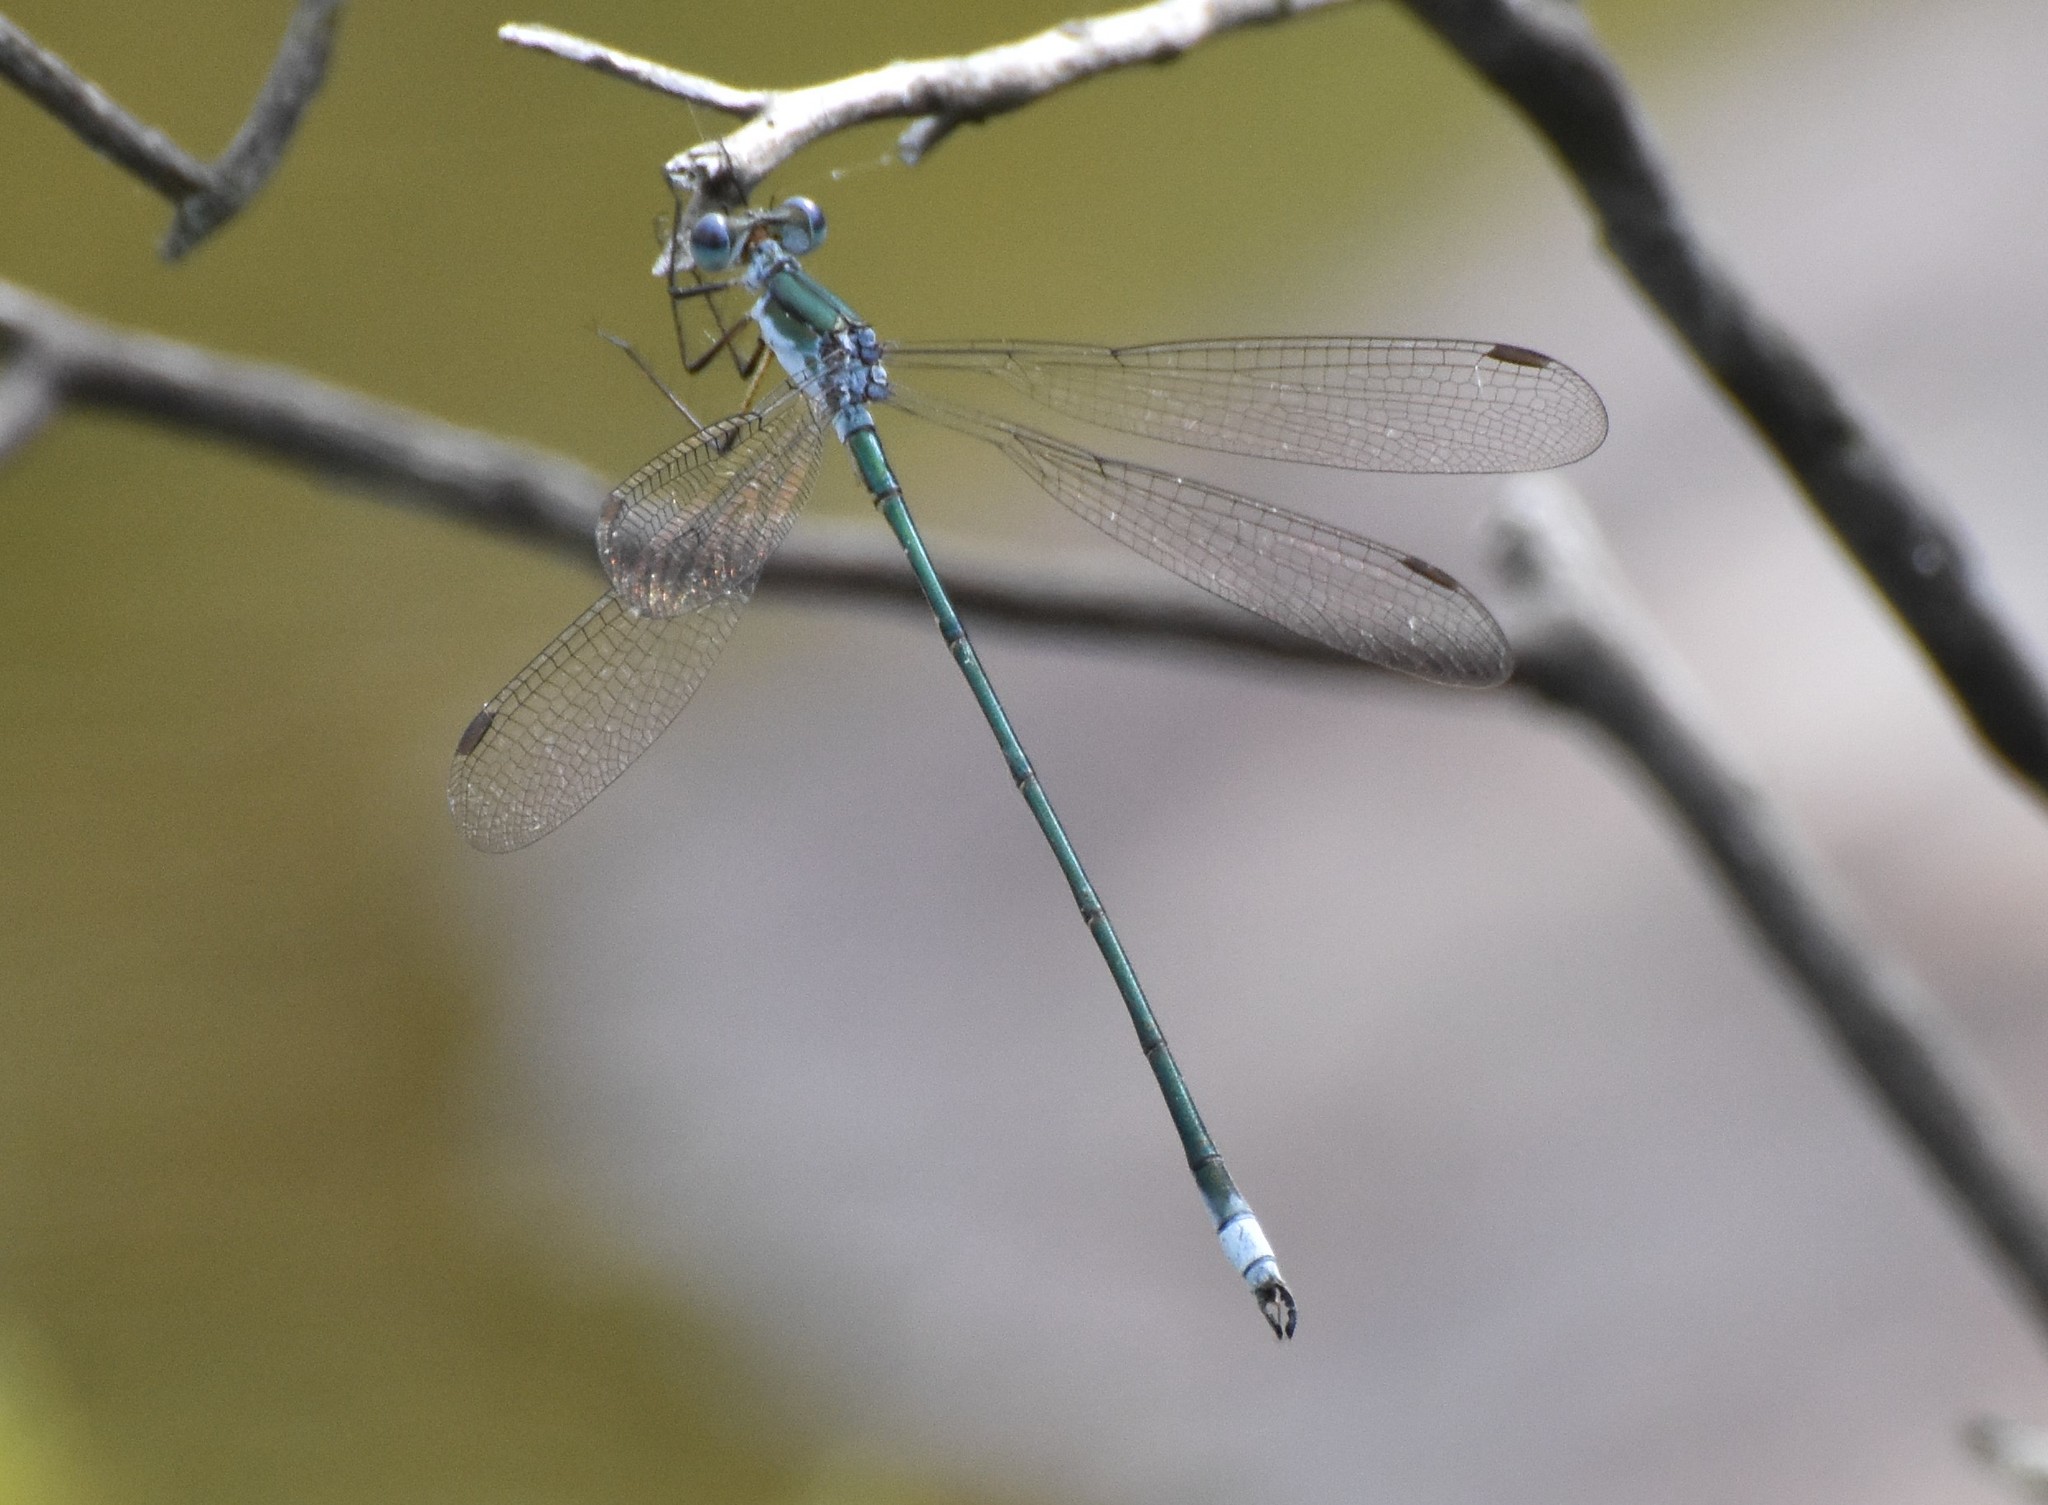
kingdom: Animalia
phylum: Arthropoda
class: Insecta
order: Odonata
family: Lestidae
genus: Lestes
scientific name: Lestes vigilax
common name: Swamp spreadwing
